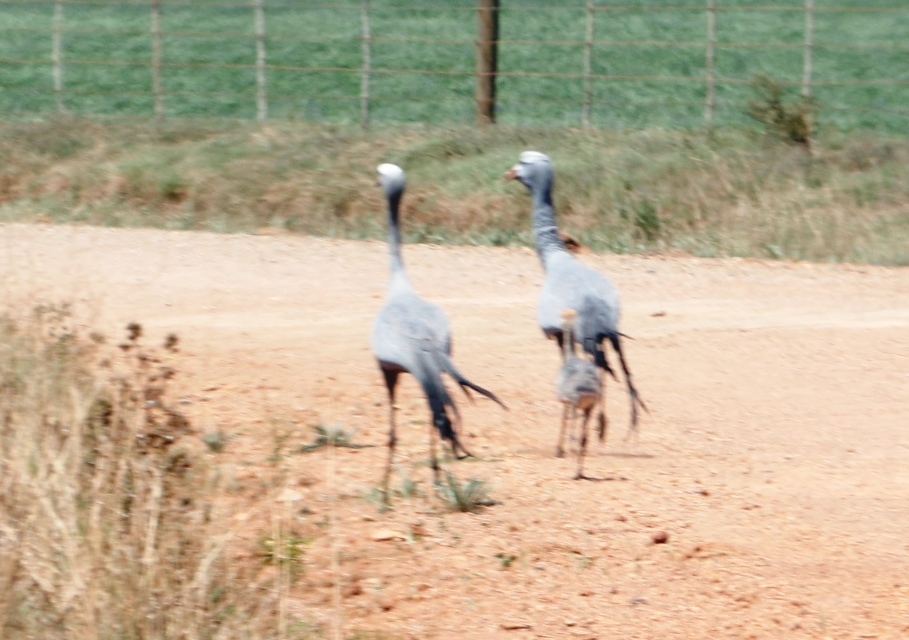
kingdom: Animalia
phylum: Chordata
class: Aves
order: Gruiformes
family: Gruidae
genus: Anthropoides
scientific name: Anthropoides paradiseus
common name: Blue crane
